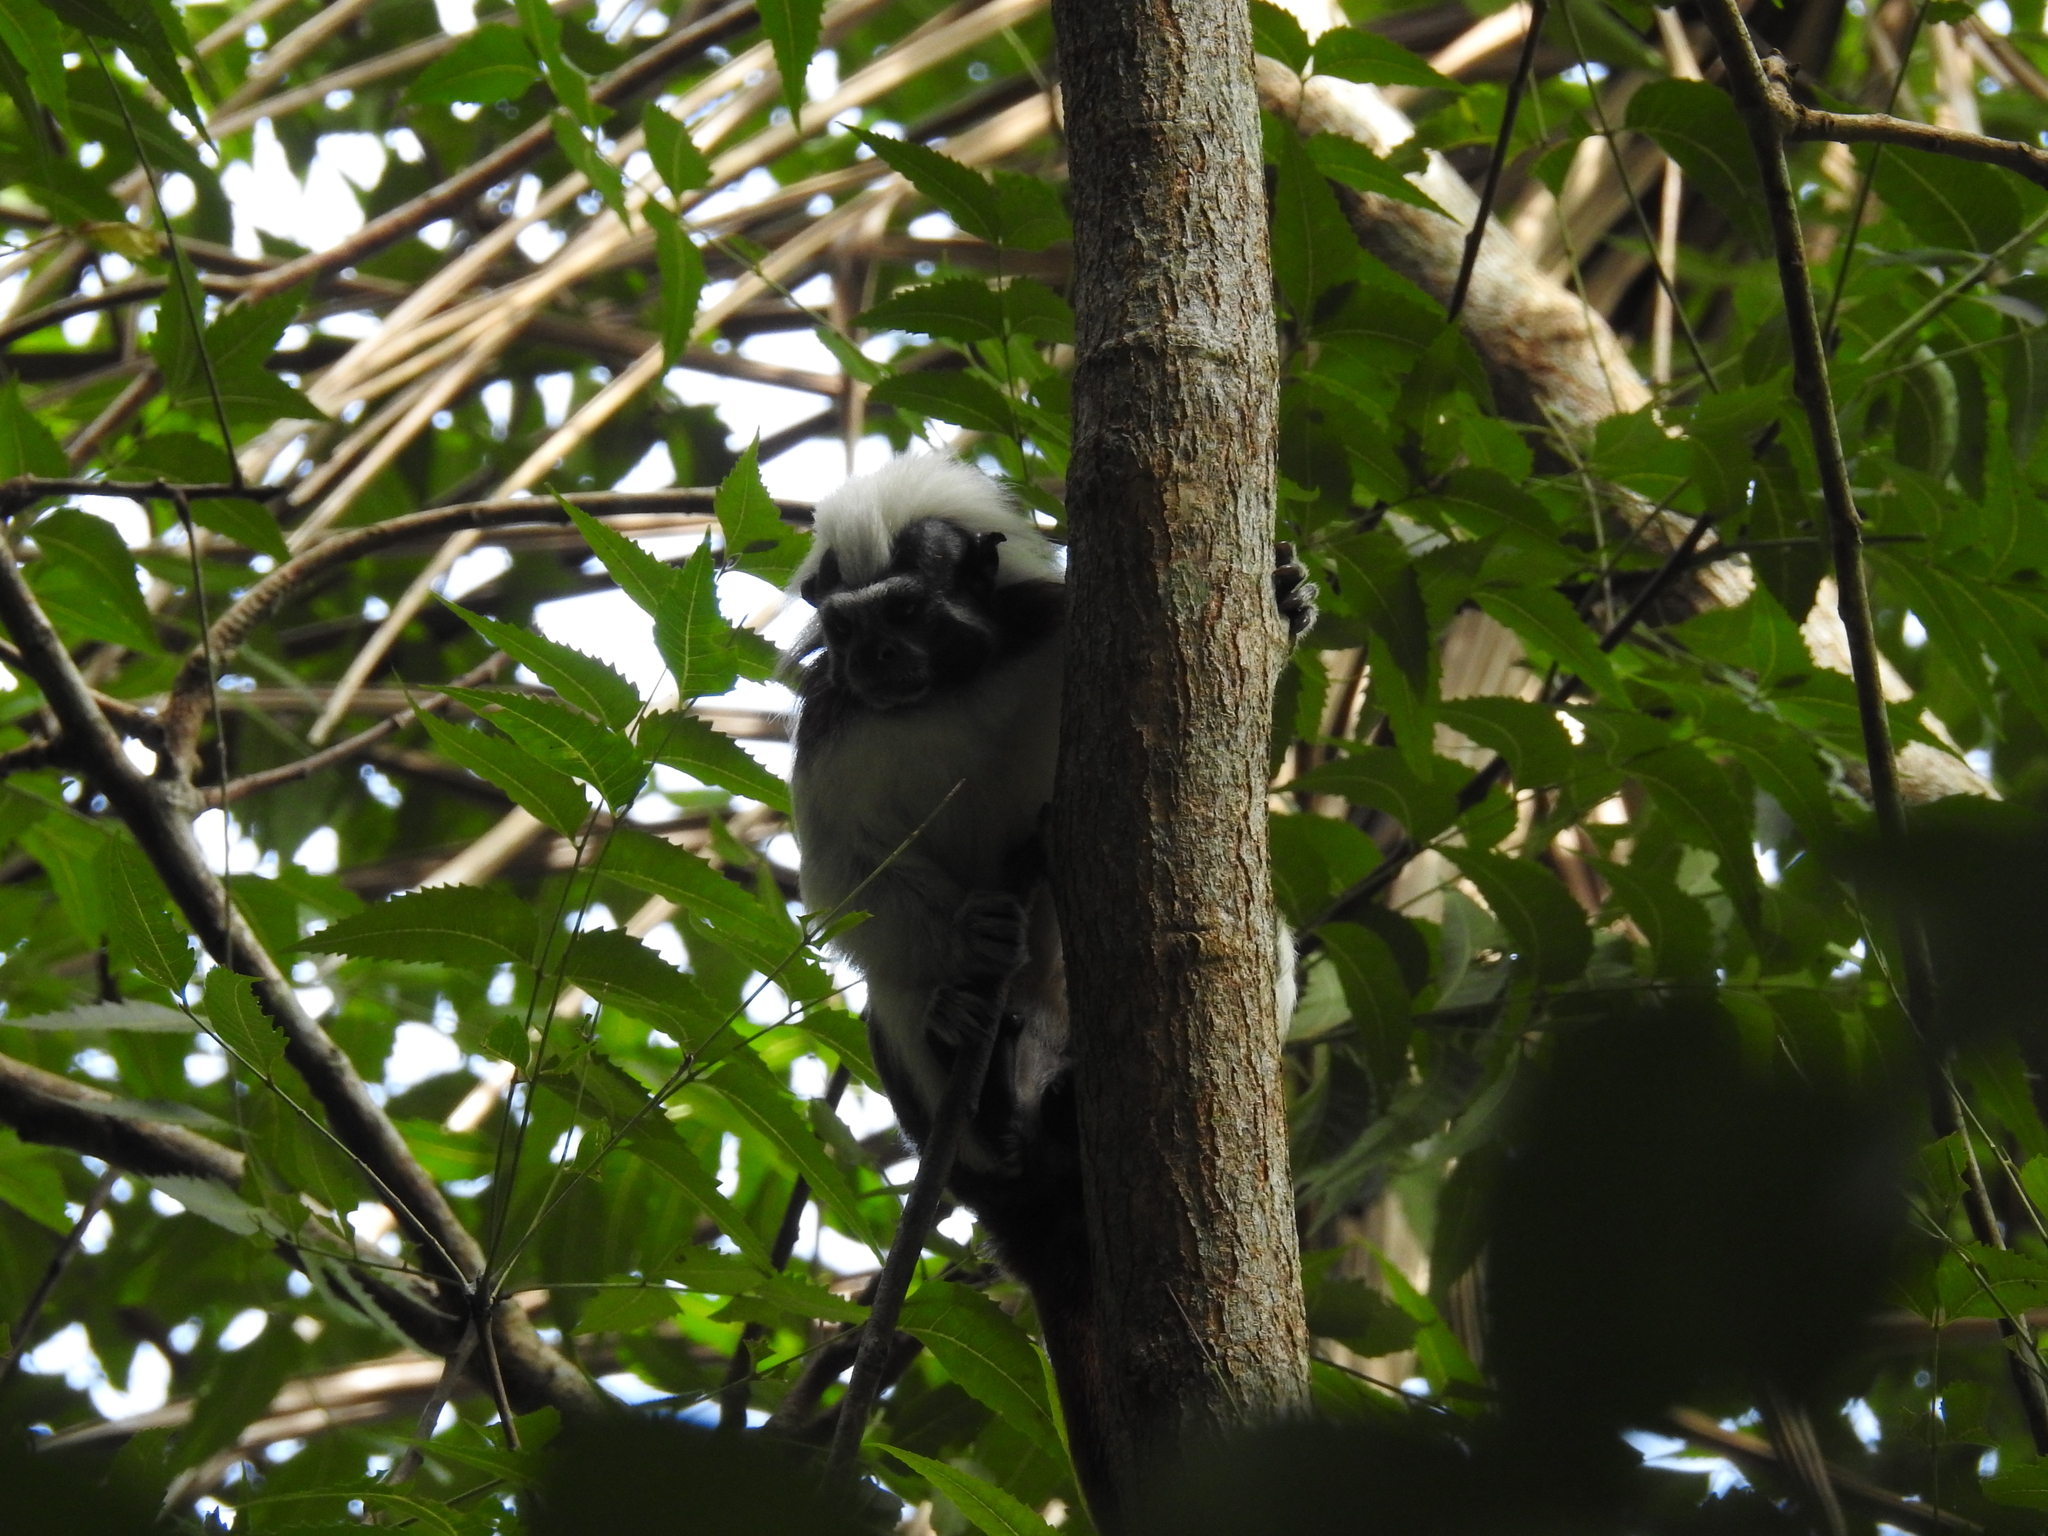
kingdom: Animalia
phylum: Chordata
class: Mammalia
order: Primates
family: Callitrichidae
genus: Saguinus
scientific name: Saguinus oedipus
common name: Cottontop tamarin
